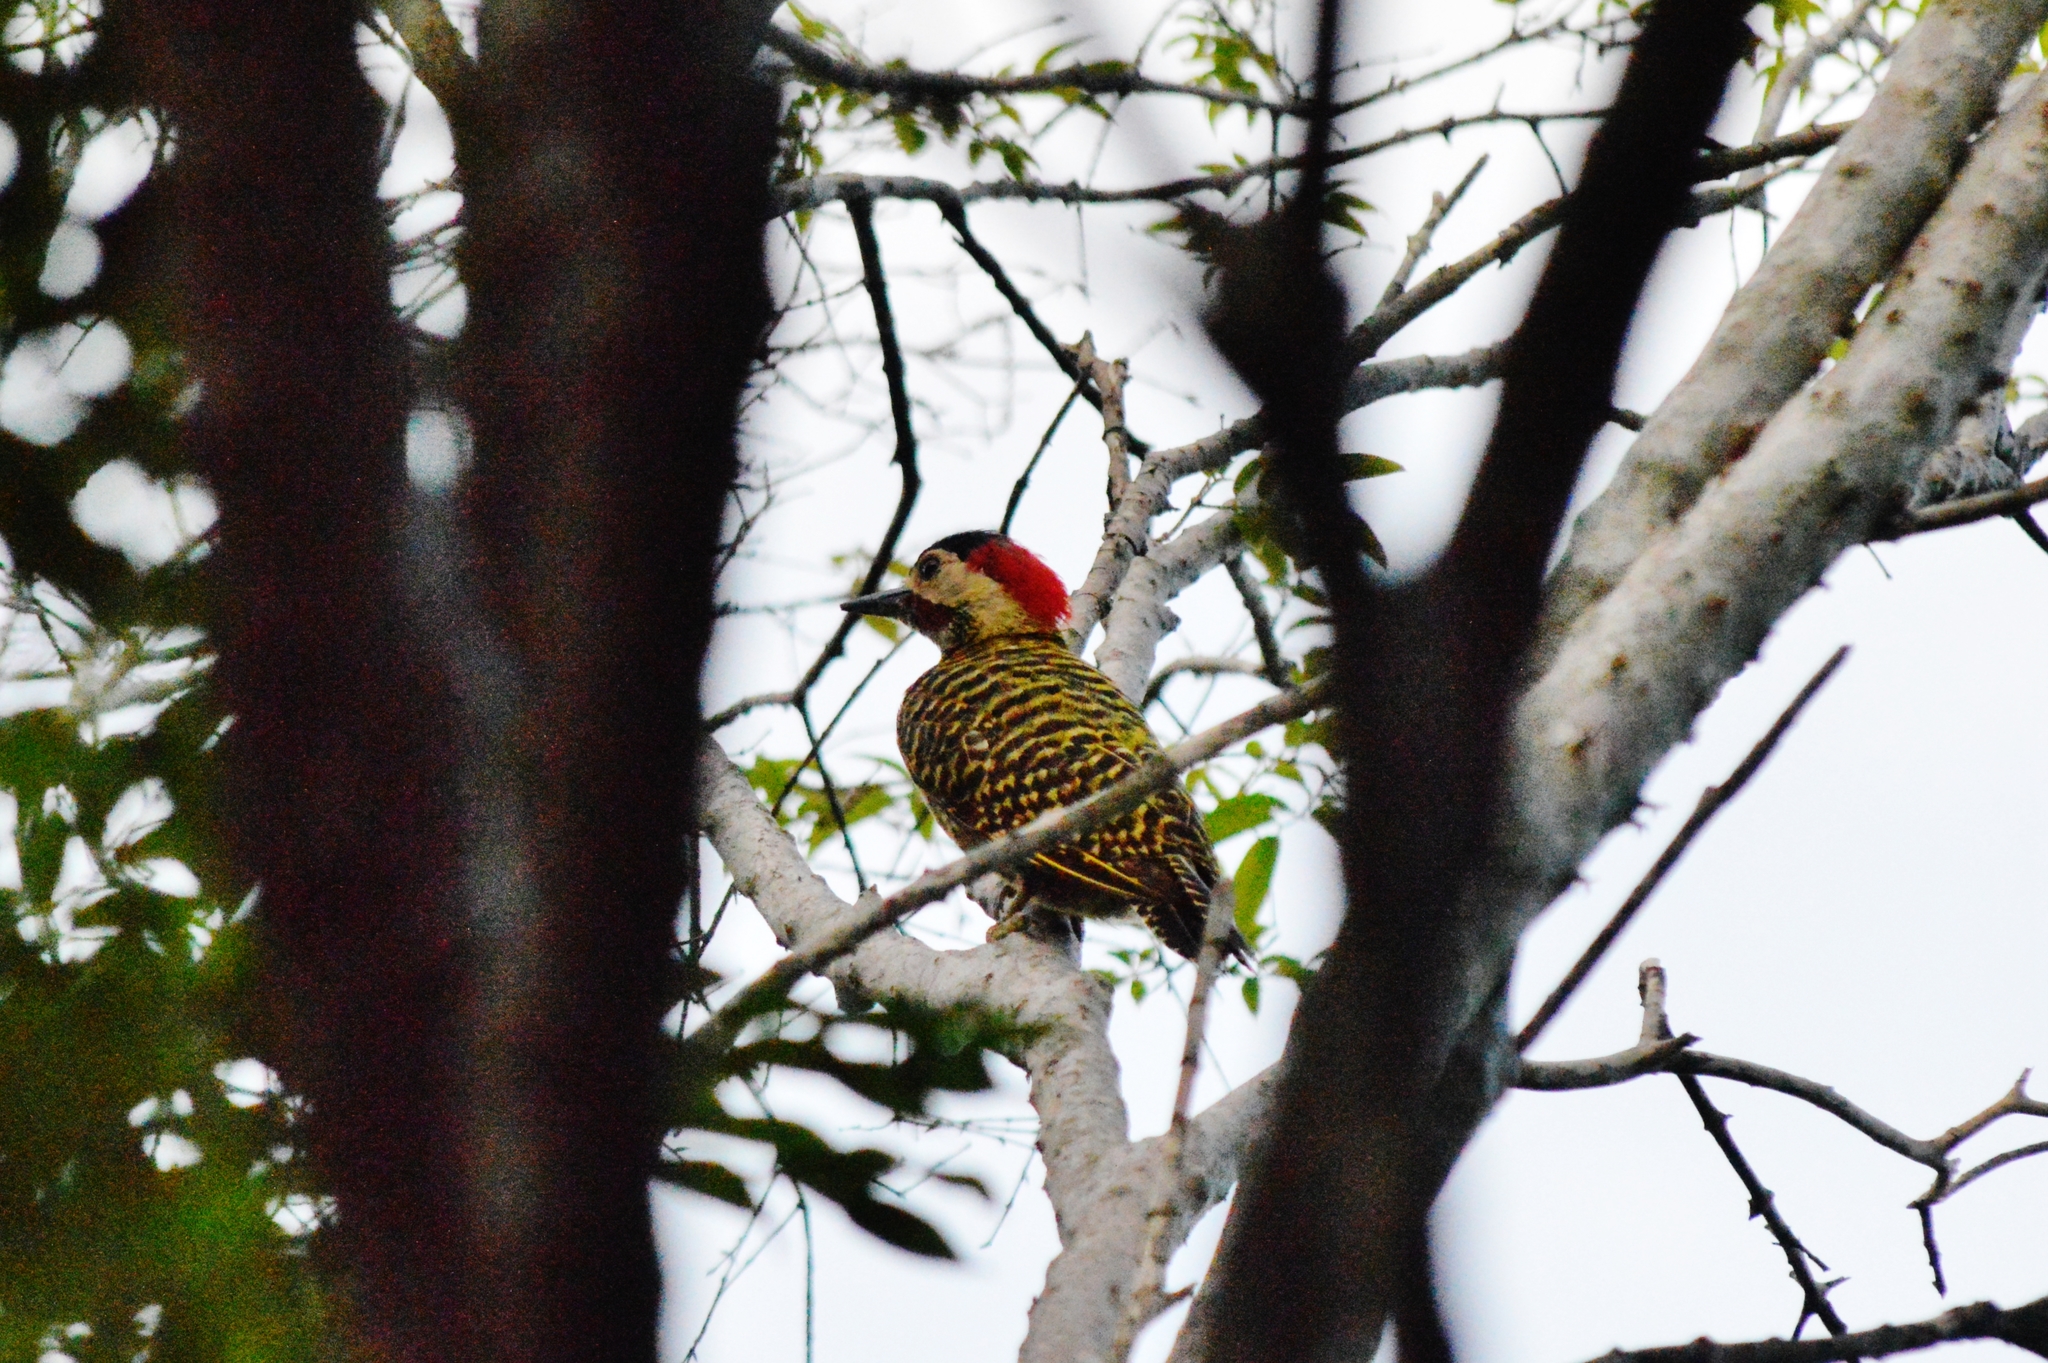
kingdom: Animalia
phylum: Chordata
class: Aves
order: Piciformes
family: Picidae
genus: Colaptes
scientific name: Colaptes melanochloros
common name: Green-barred woodpecker
